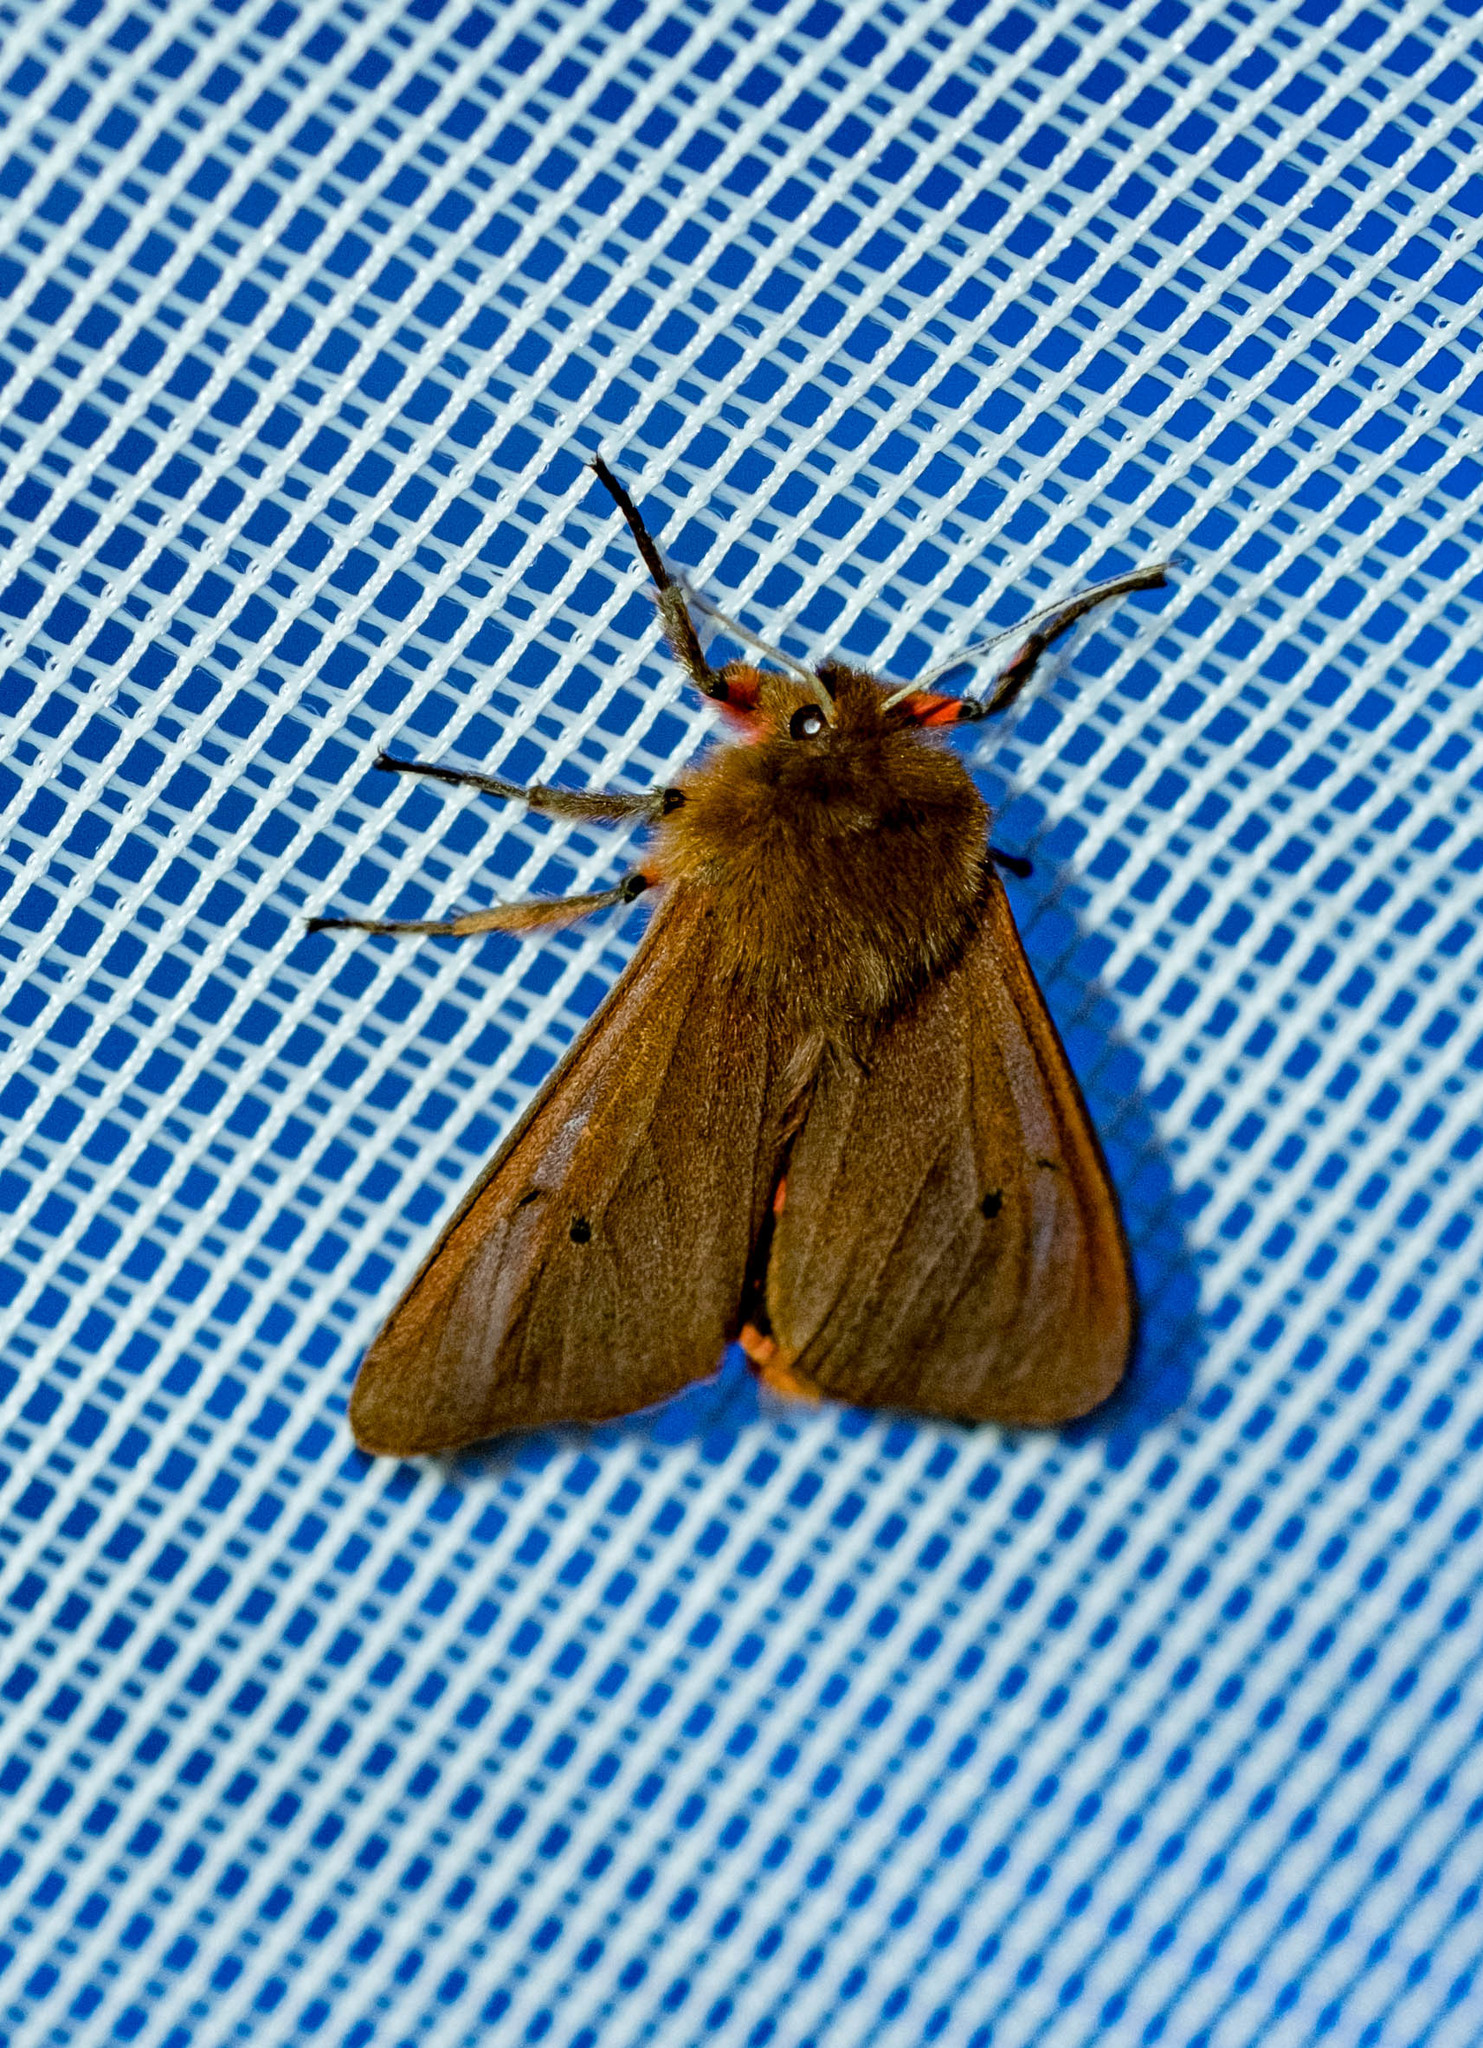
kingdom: Animalia
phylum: Arthropoda
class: Insecta
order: Lepidoptera
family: Erebidae
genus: Phragmatobia
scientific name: Phragmatobia fuliginosa
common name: Ruby tiger
